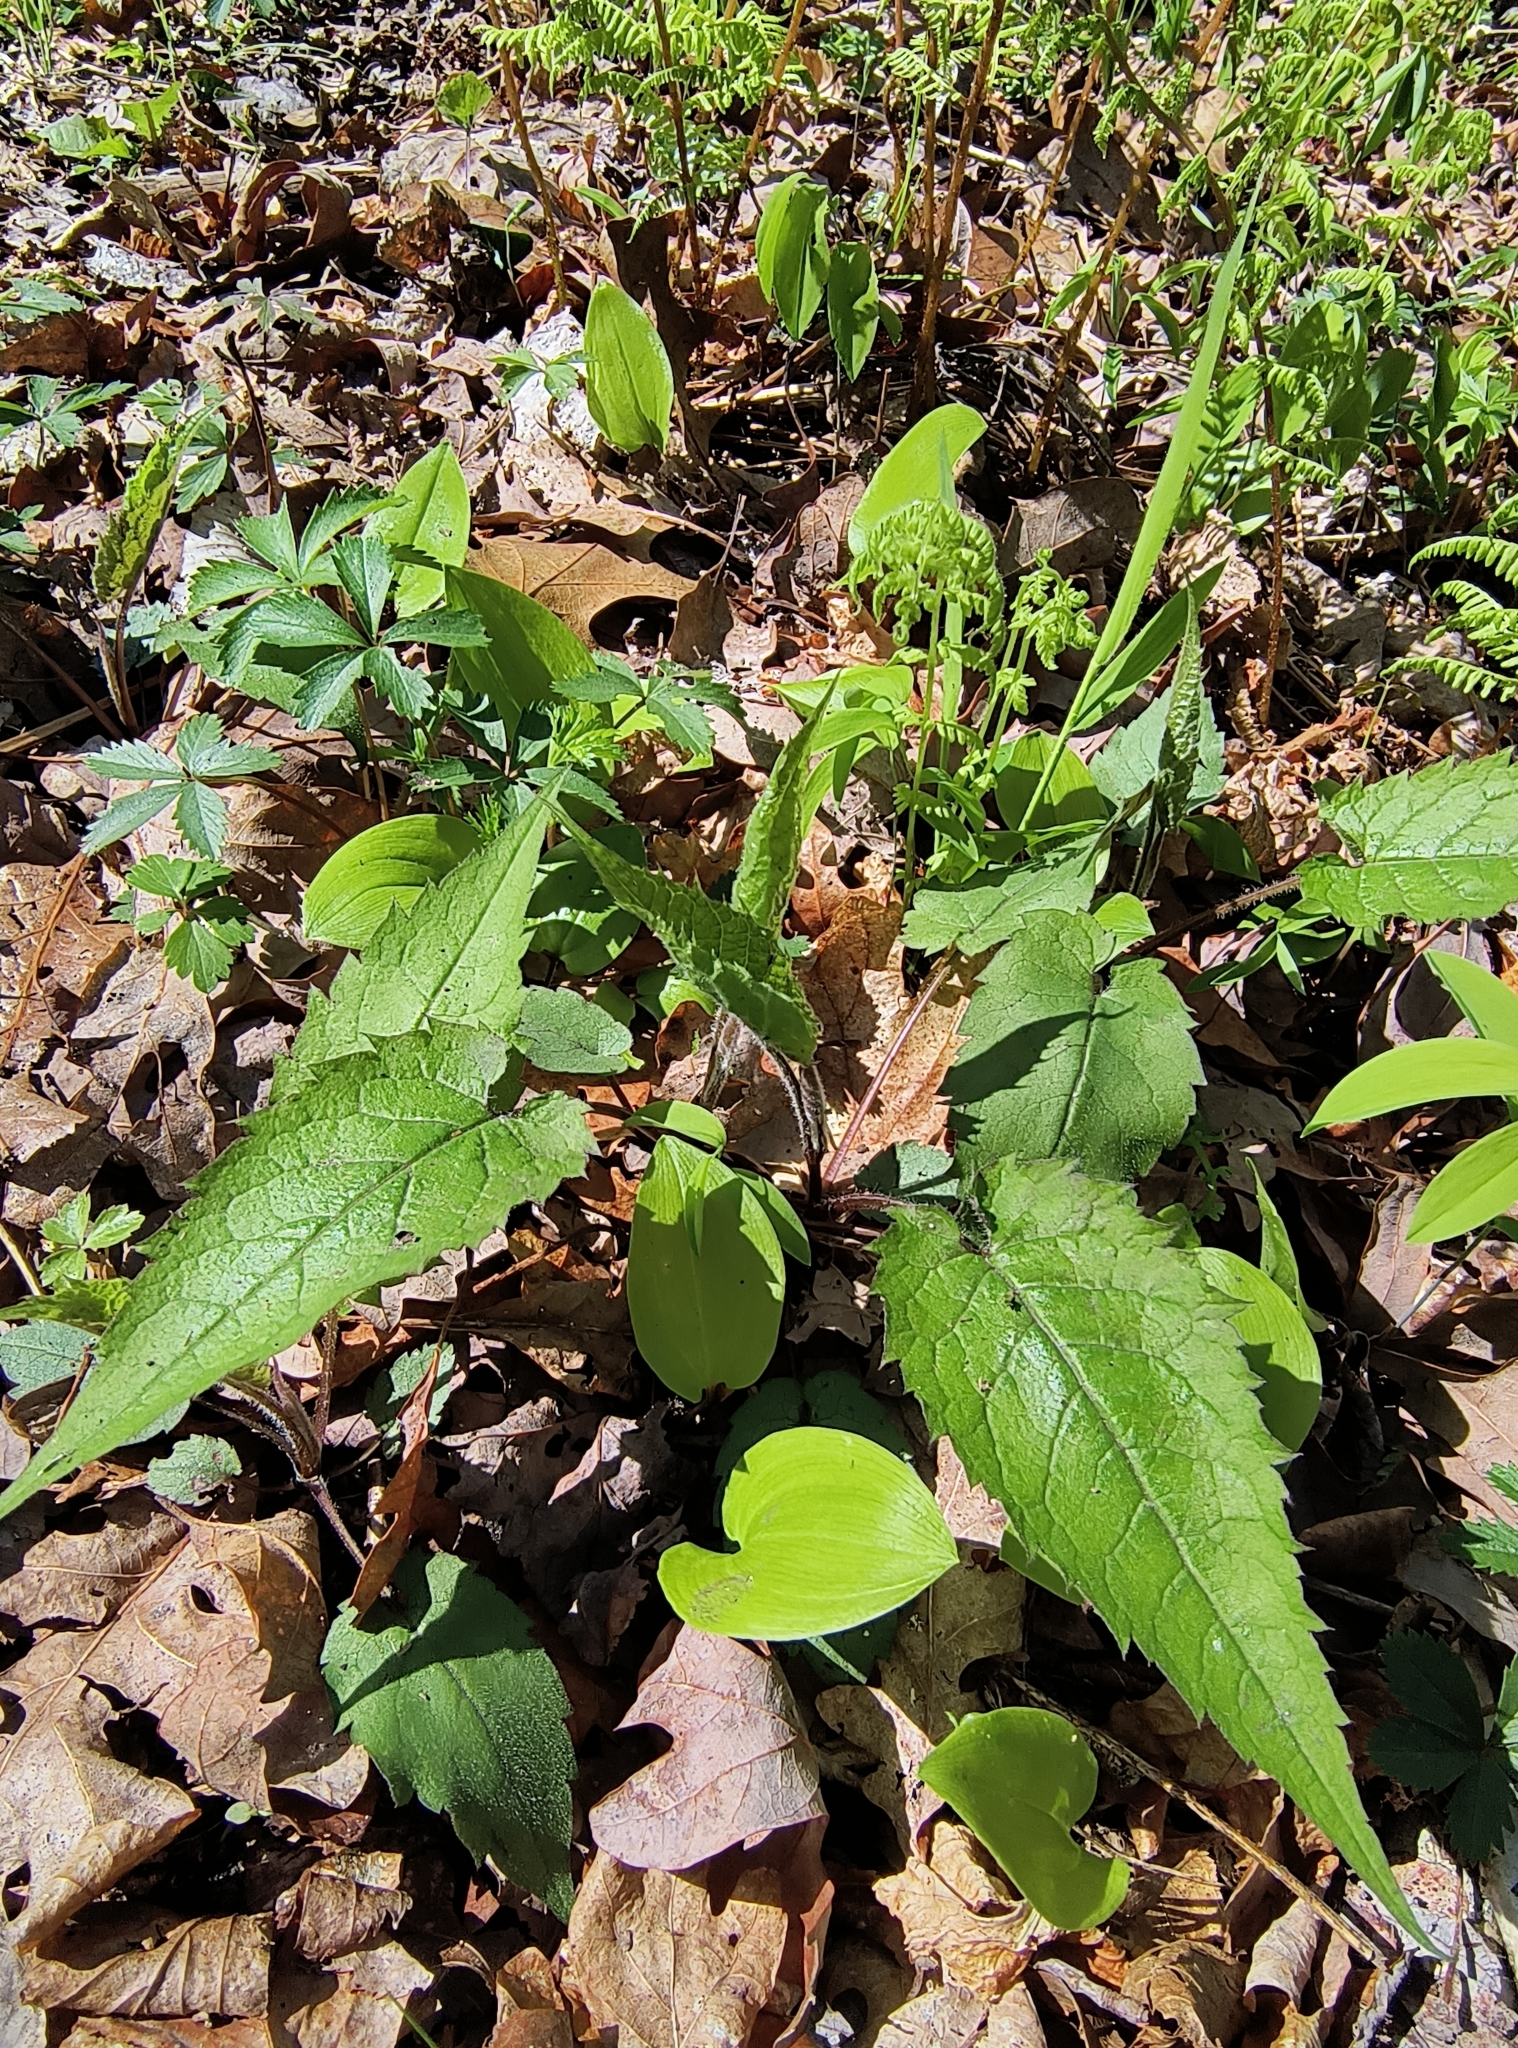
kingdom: Plantae
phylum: Tracheophyta
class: Magnoliopsida
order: Asterales
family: Asteraceae
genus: Eurybia
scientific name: Eurybia divaricata
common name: White wood aster
